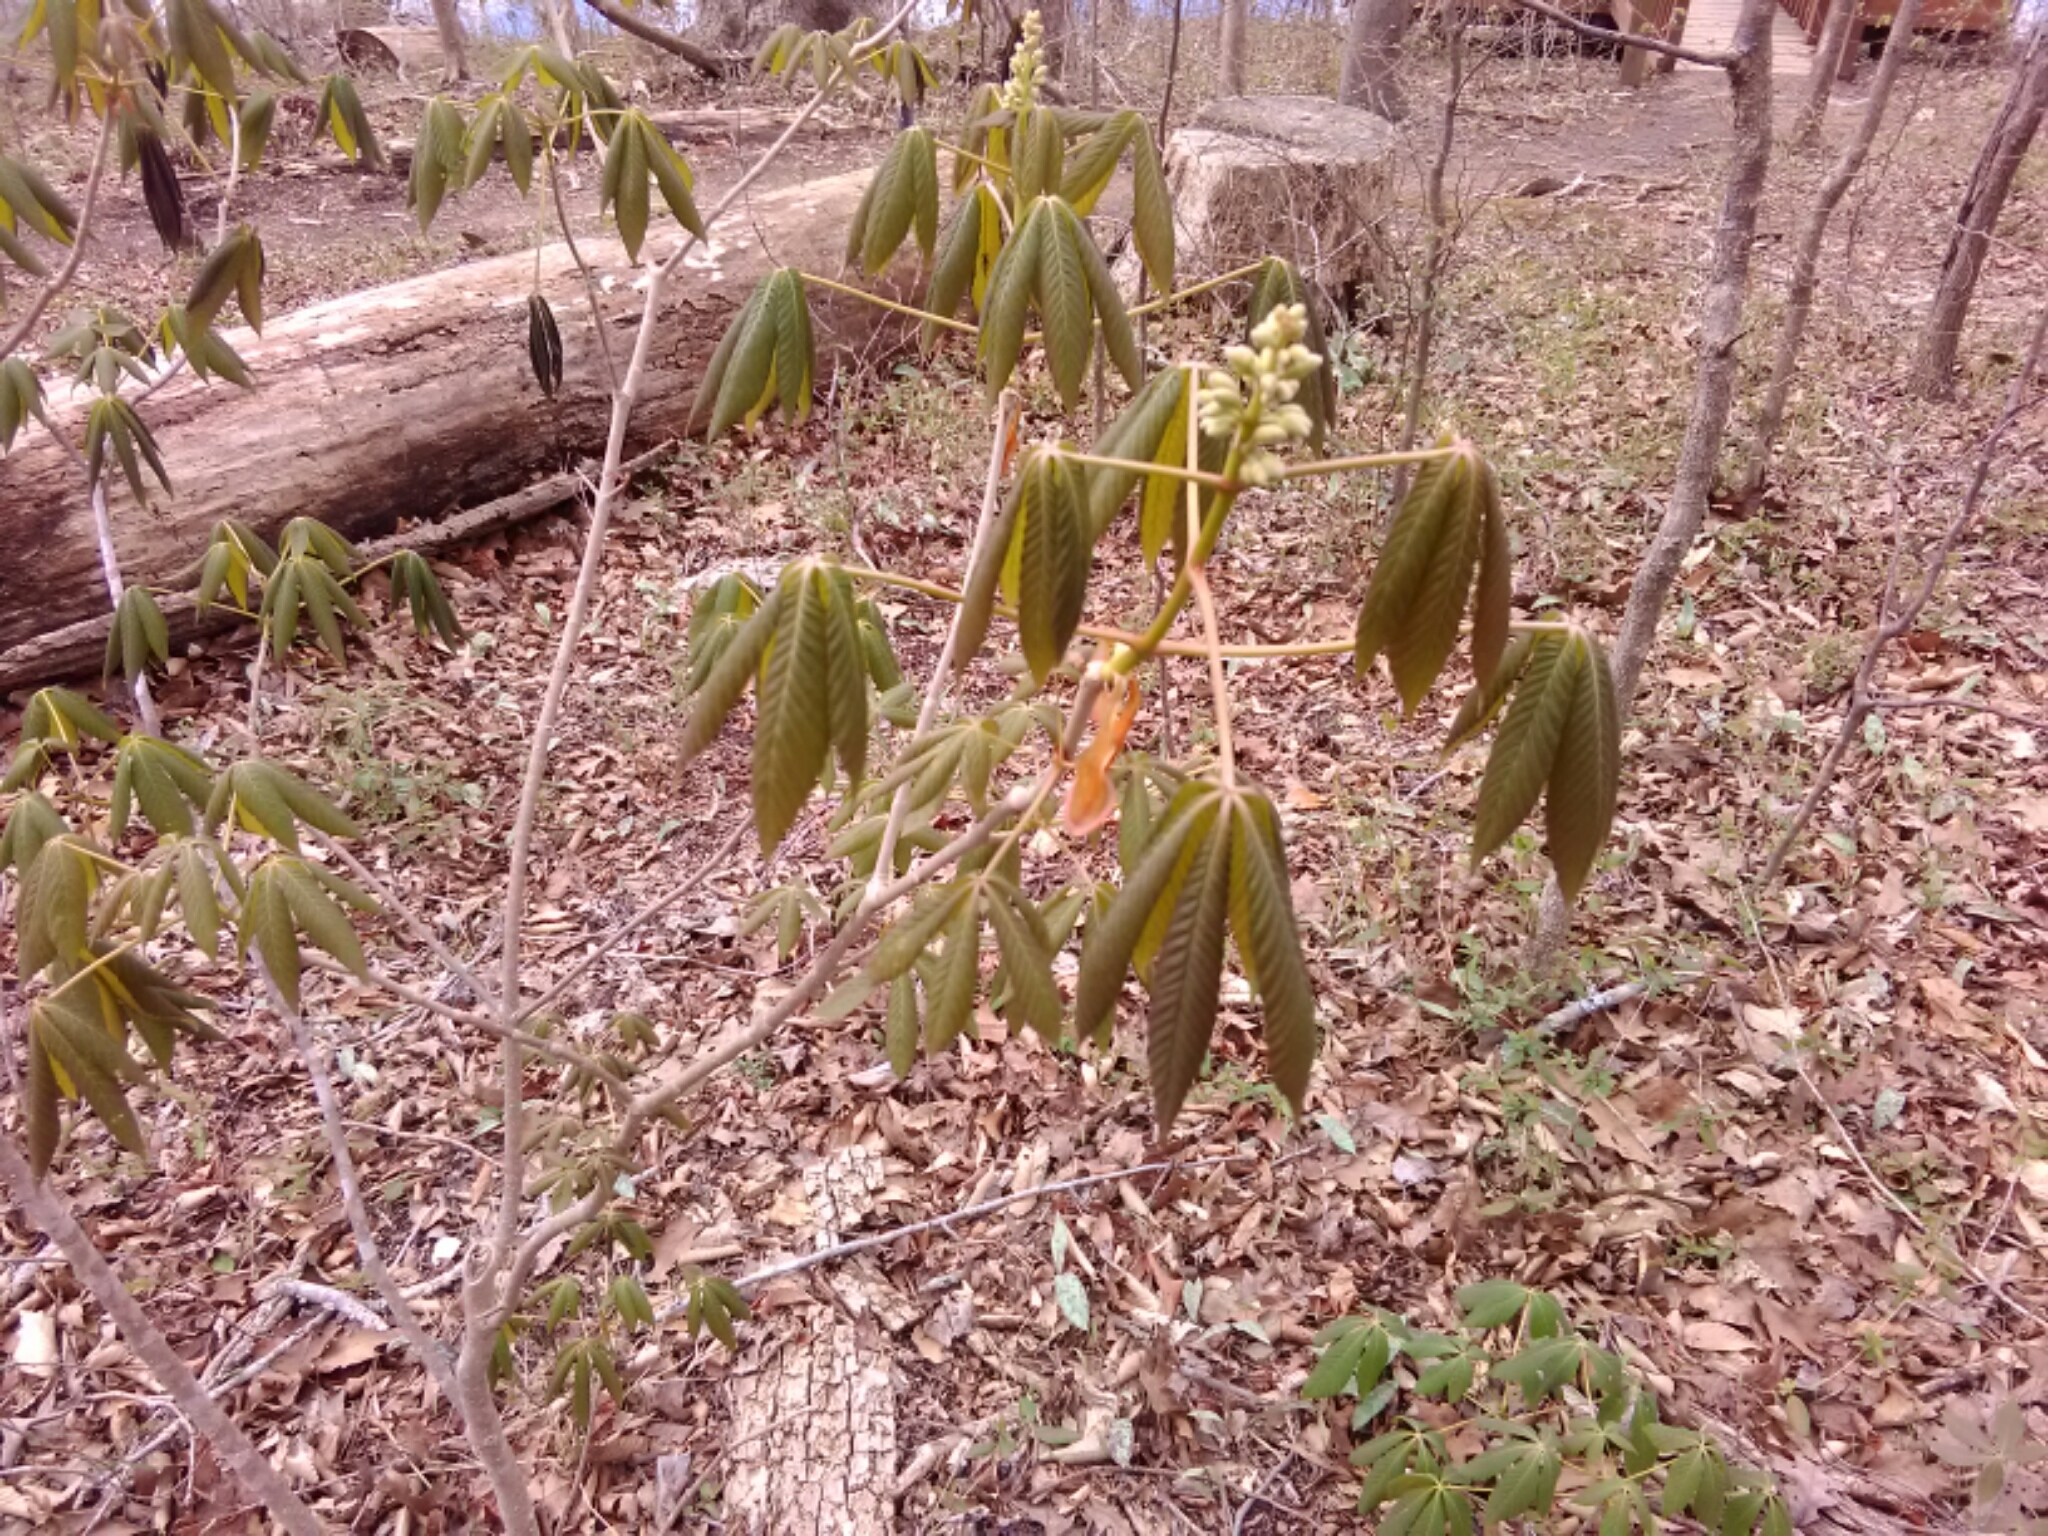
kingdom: Plantae
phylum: Tracheophyta
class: Magnoliopsida
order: Sapindales
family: Sapindaceae
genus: Aesculus
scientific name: Aesculus sylvatica
